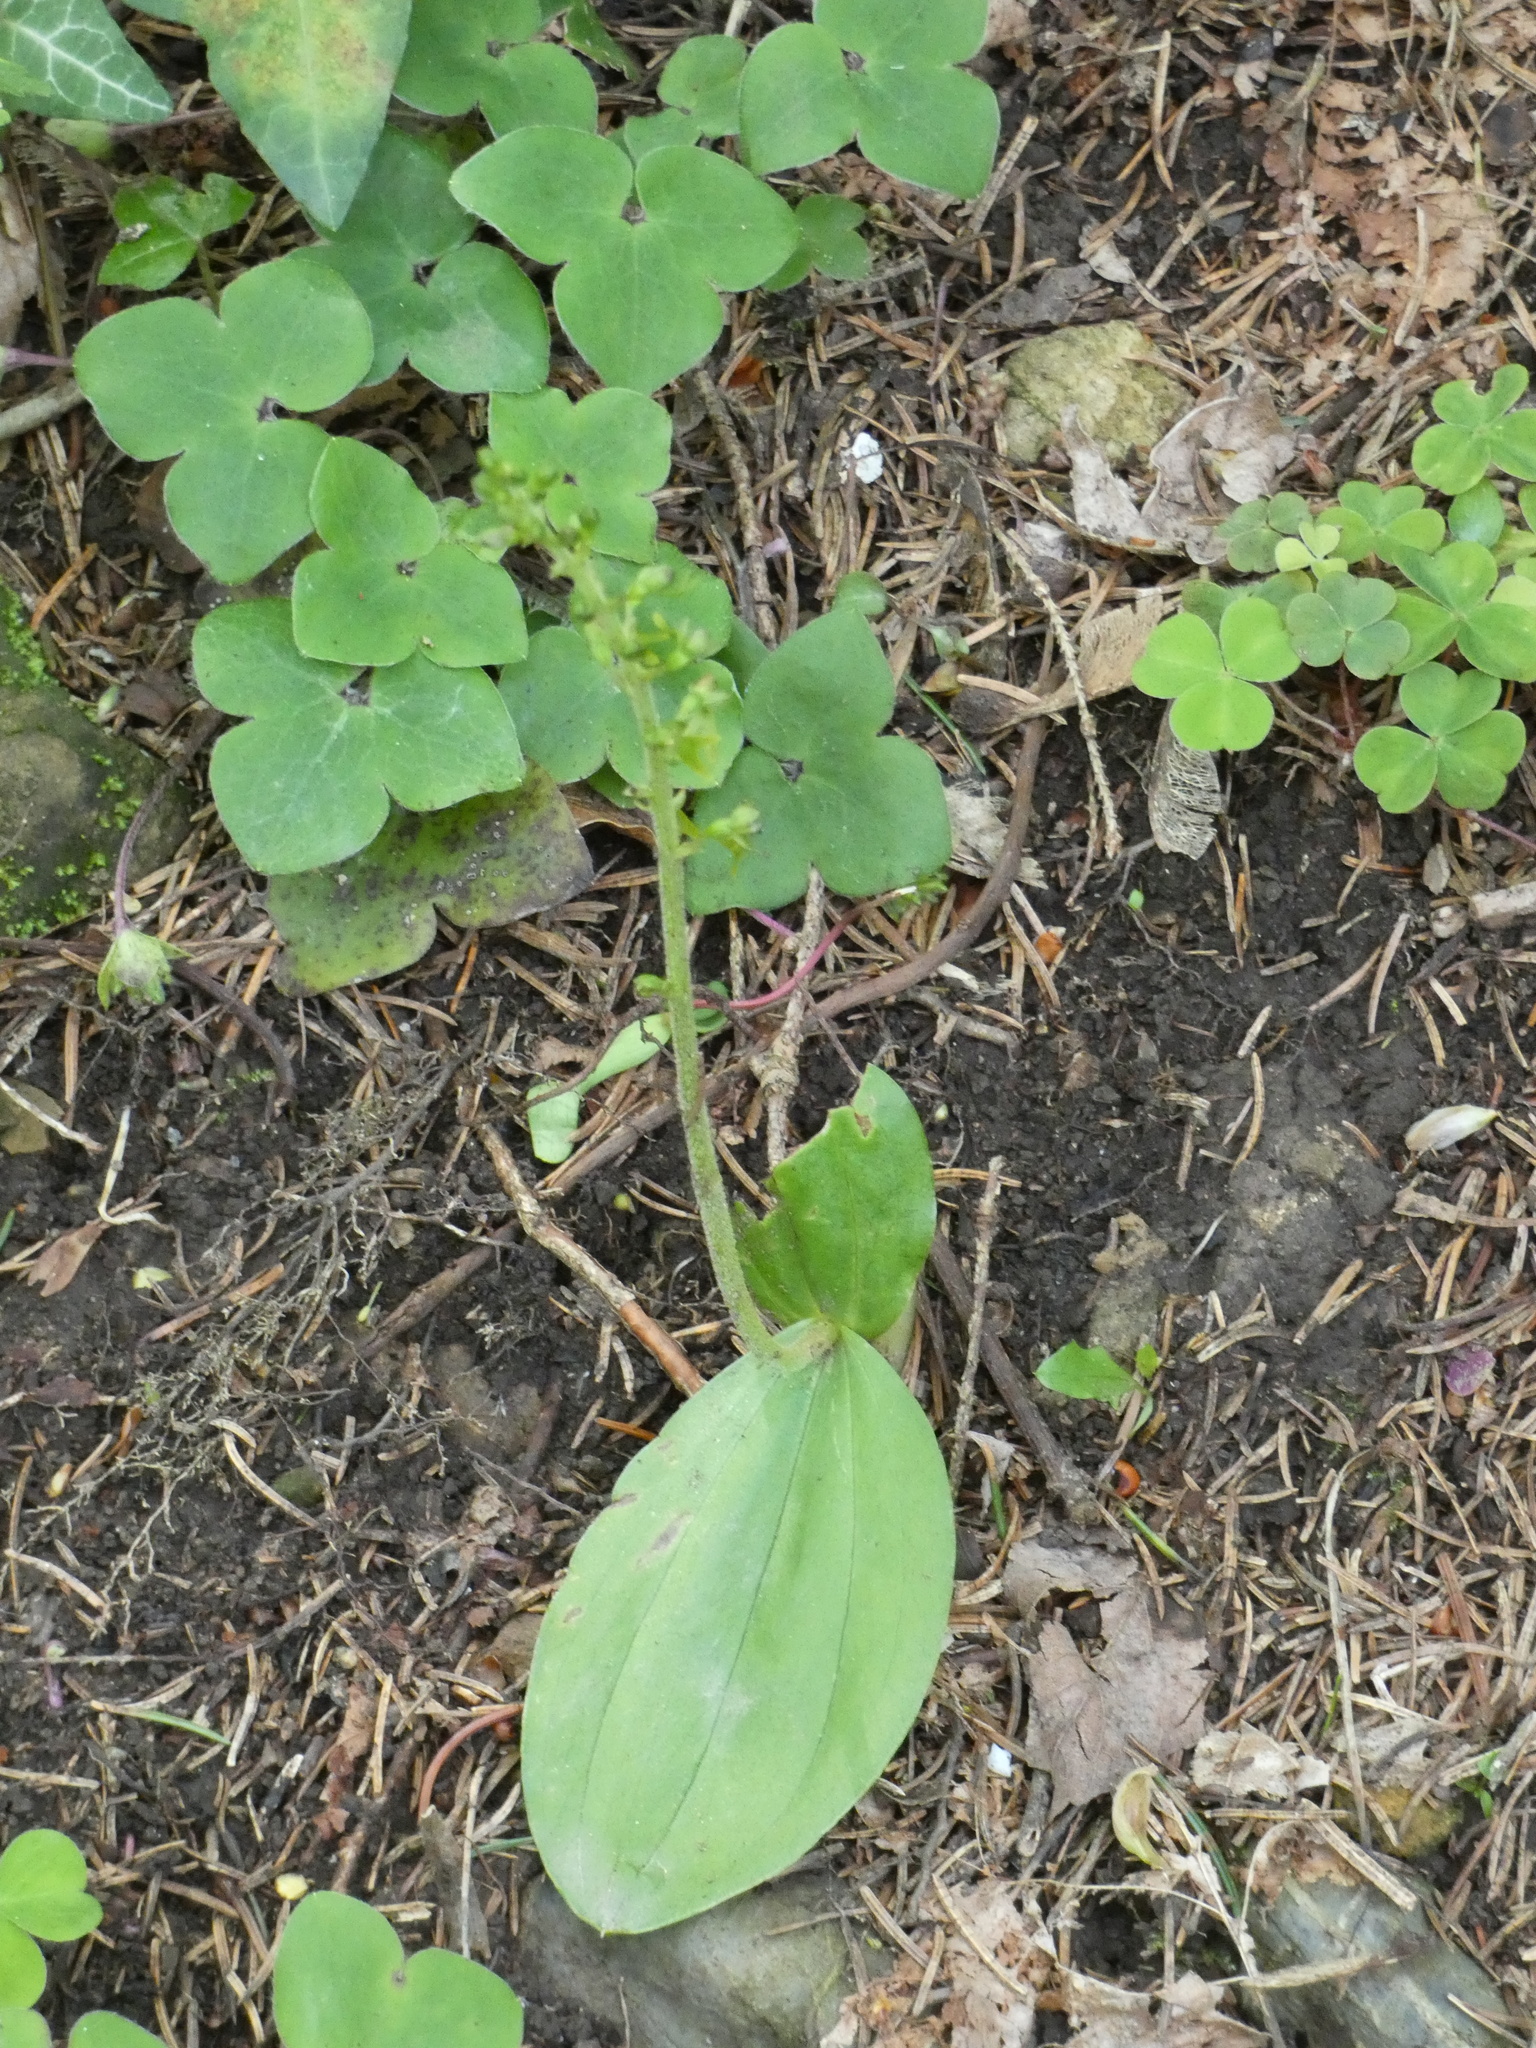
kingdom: Plantae
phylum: Tracheophyta
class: Liliopsida
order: Asparagales
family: Orchidaceae
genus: Neottia
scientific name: Neottia ovata
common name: Common twayblade
